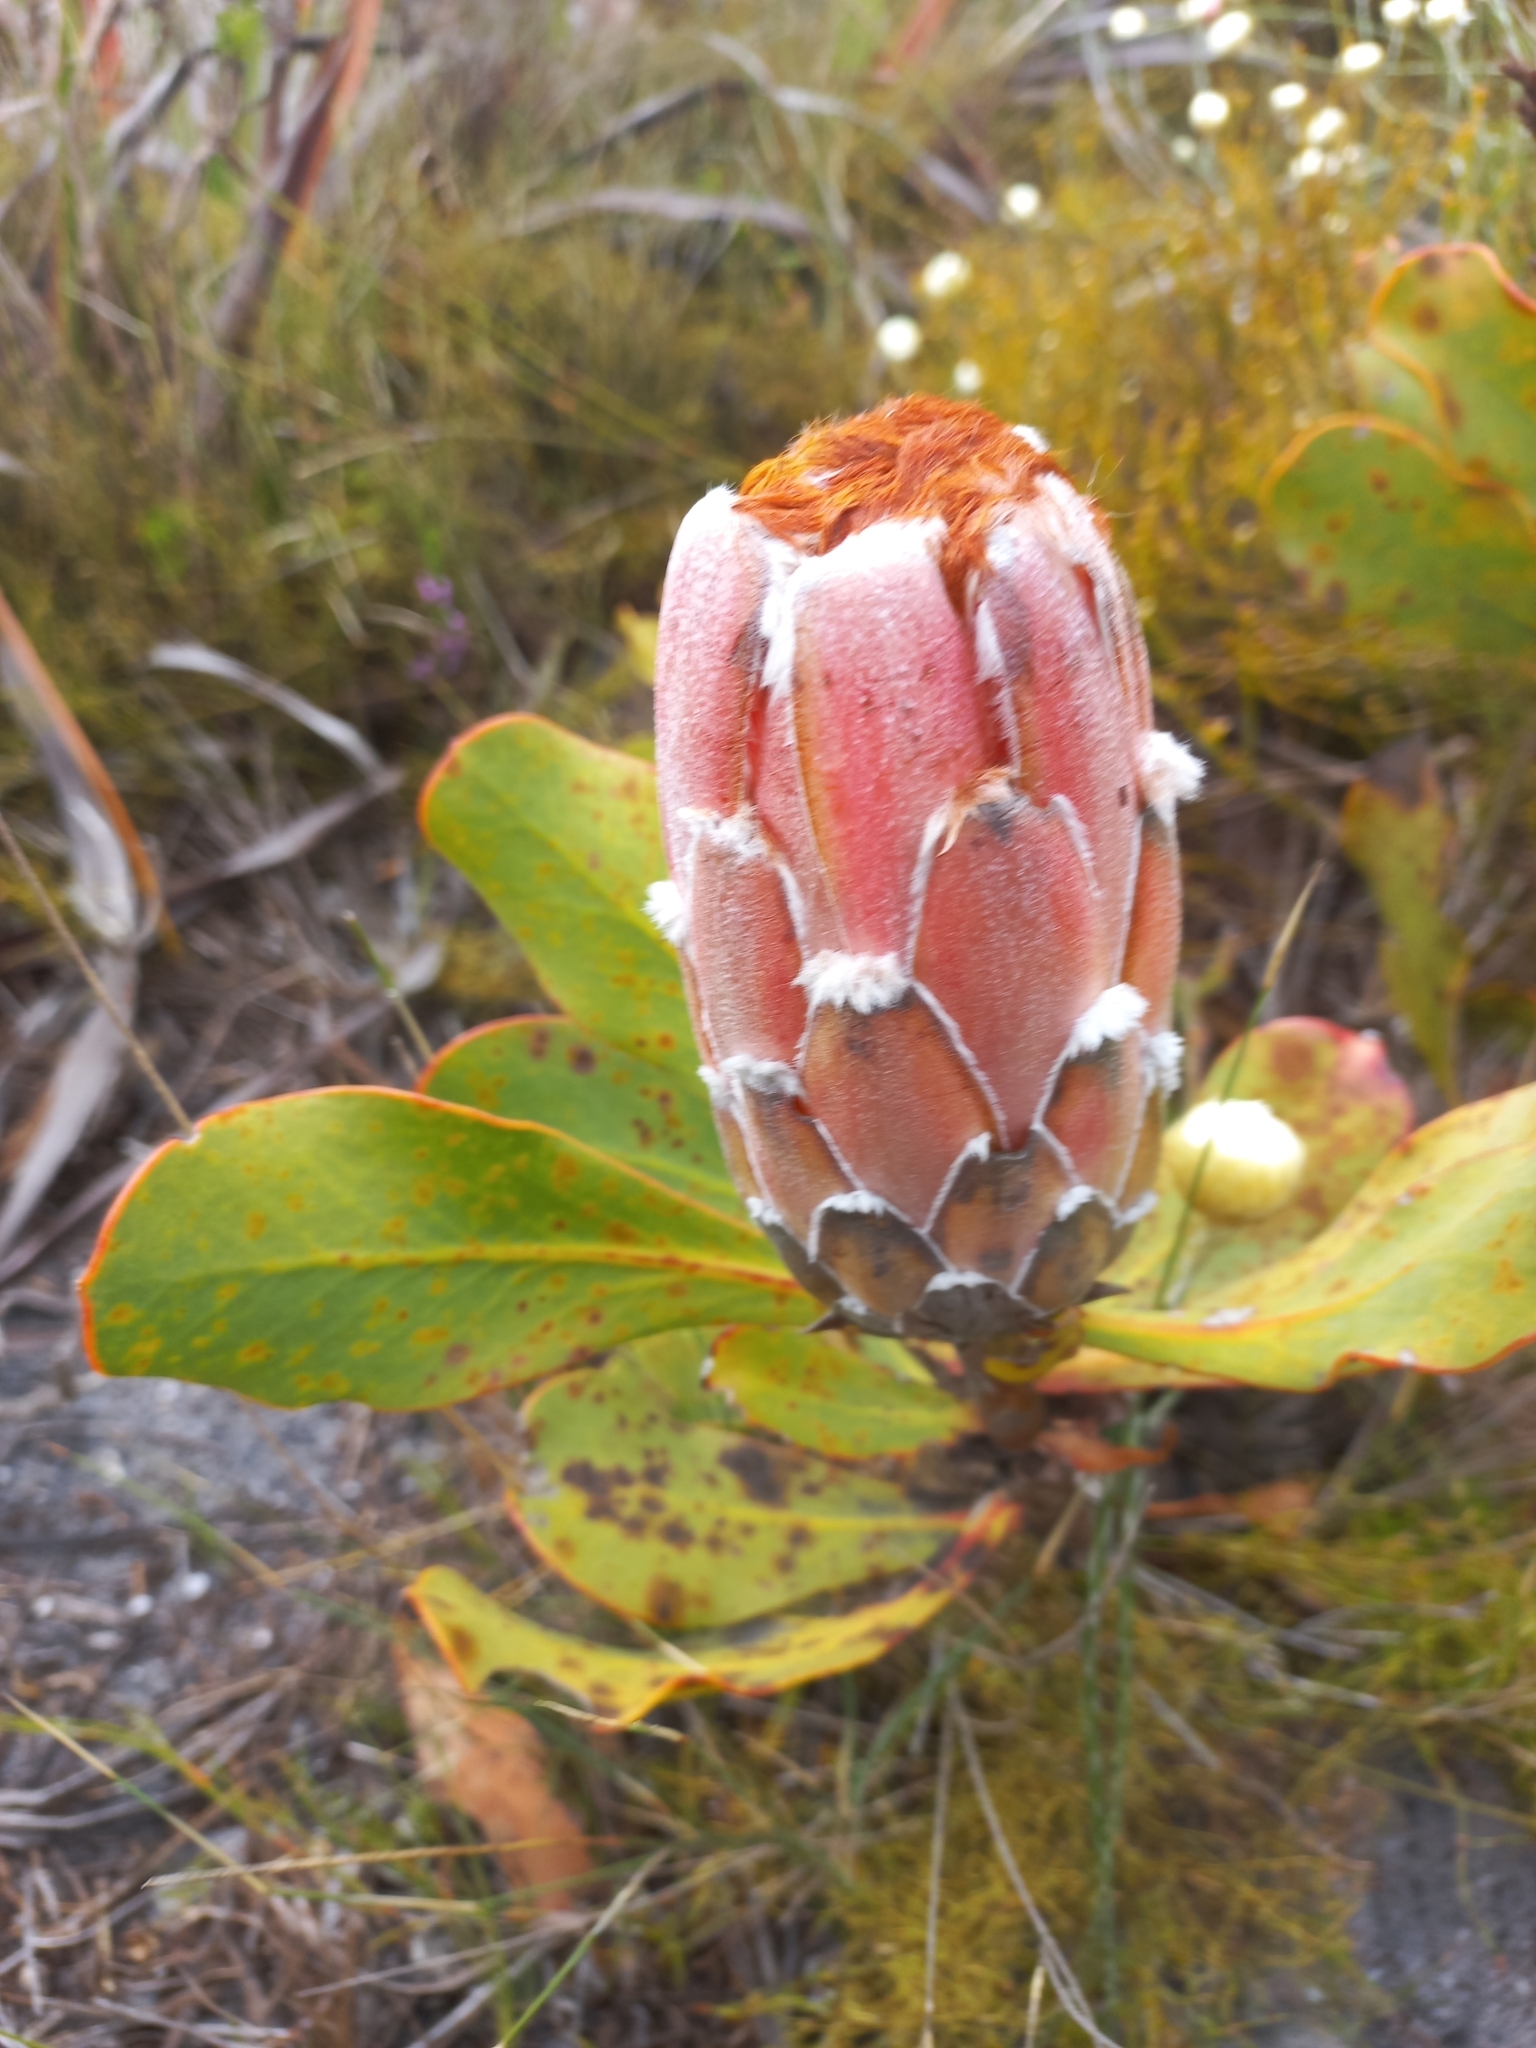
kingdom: Plantae
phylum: Tracheophyta
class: Magnoliopsida
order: Proteales
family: Proteaceae
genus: Protea
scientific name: Protea speciosa
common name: Brown-beard sugarbush
